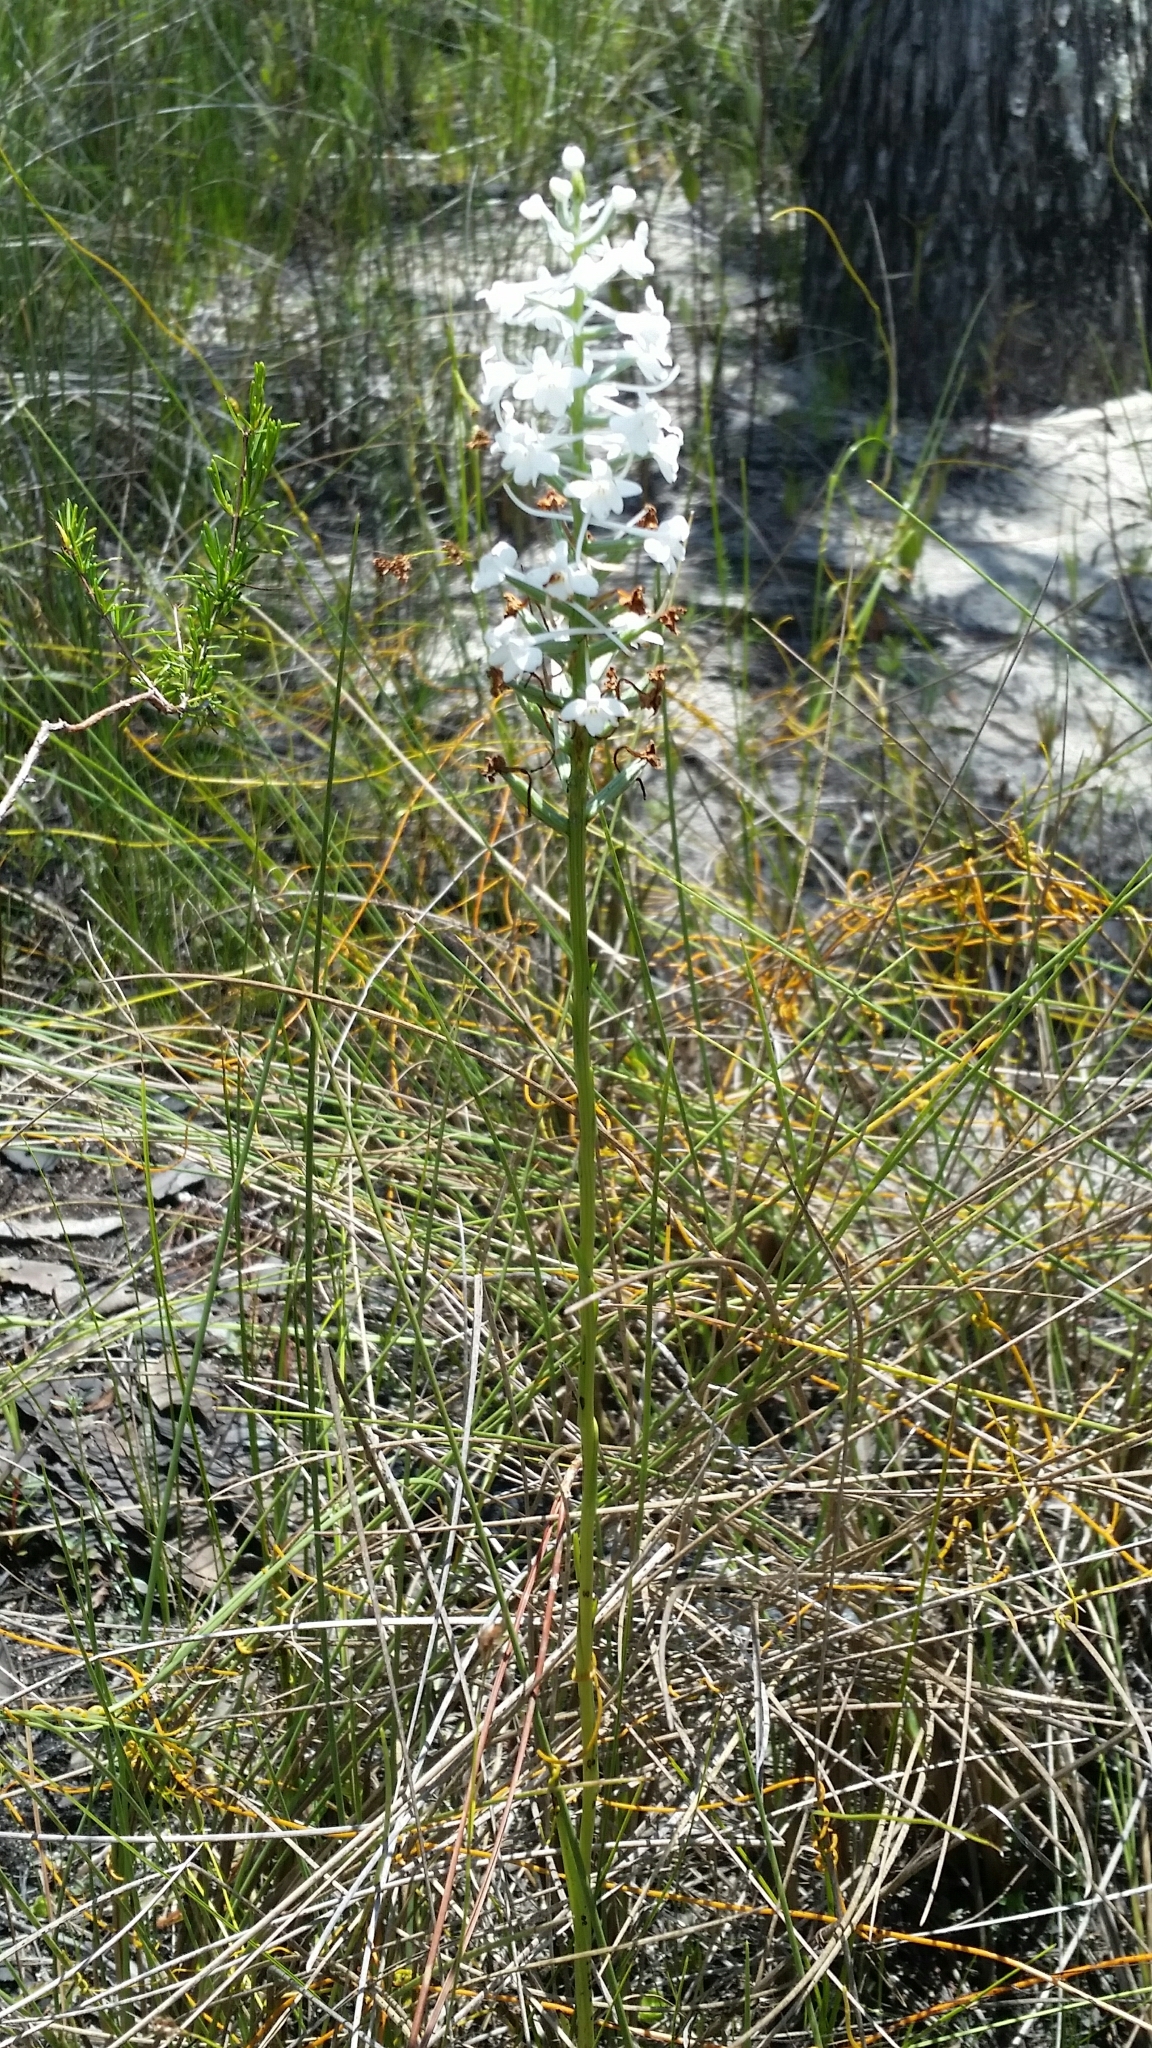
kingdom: Plantae
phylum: Tracheophyta
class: Liliopsida
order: Asparagales
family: Orchidaceae
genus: Platanthera
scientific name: Platanthera nivea
